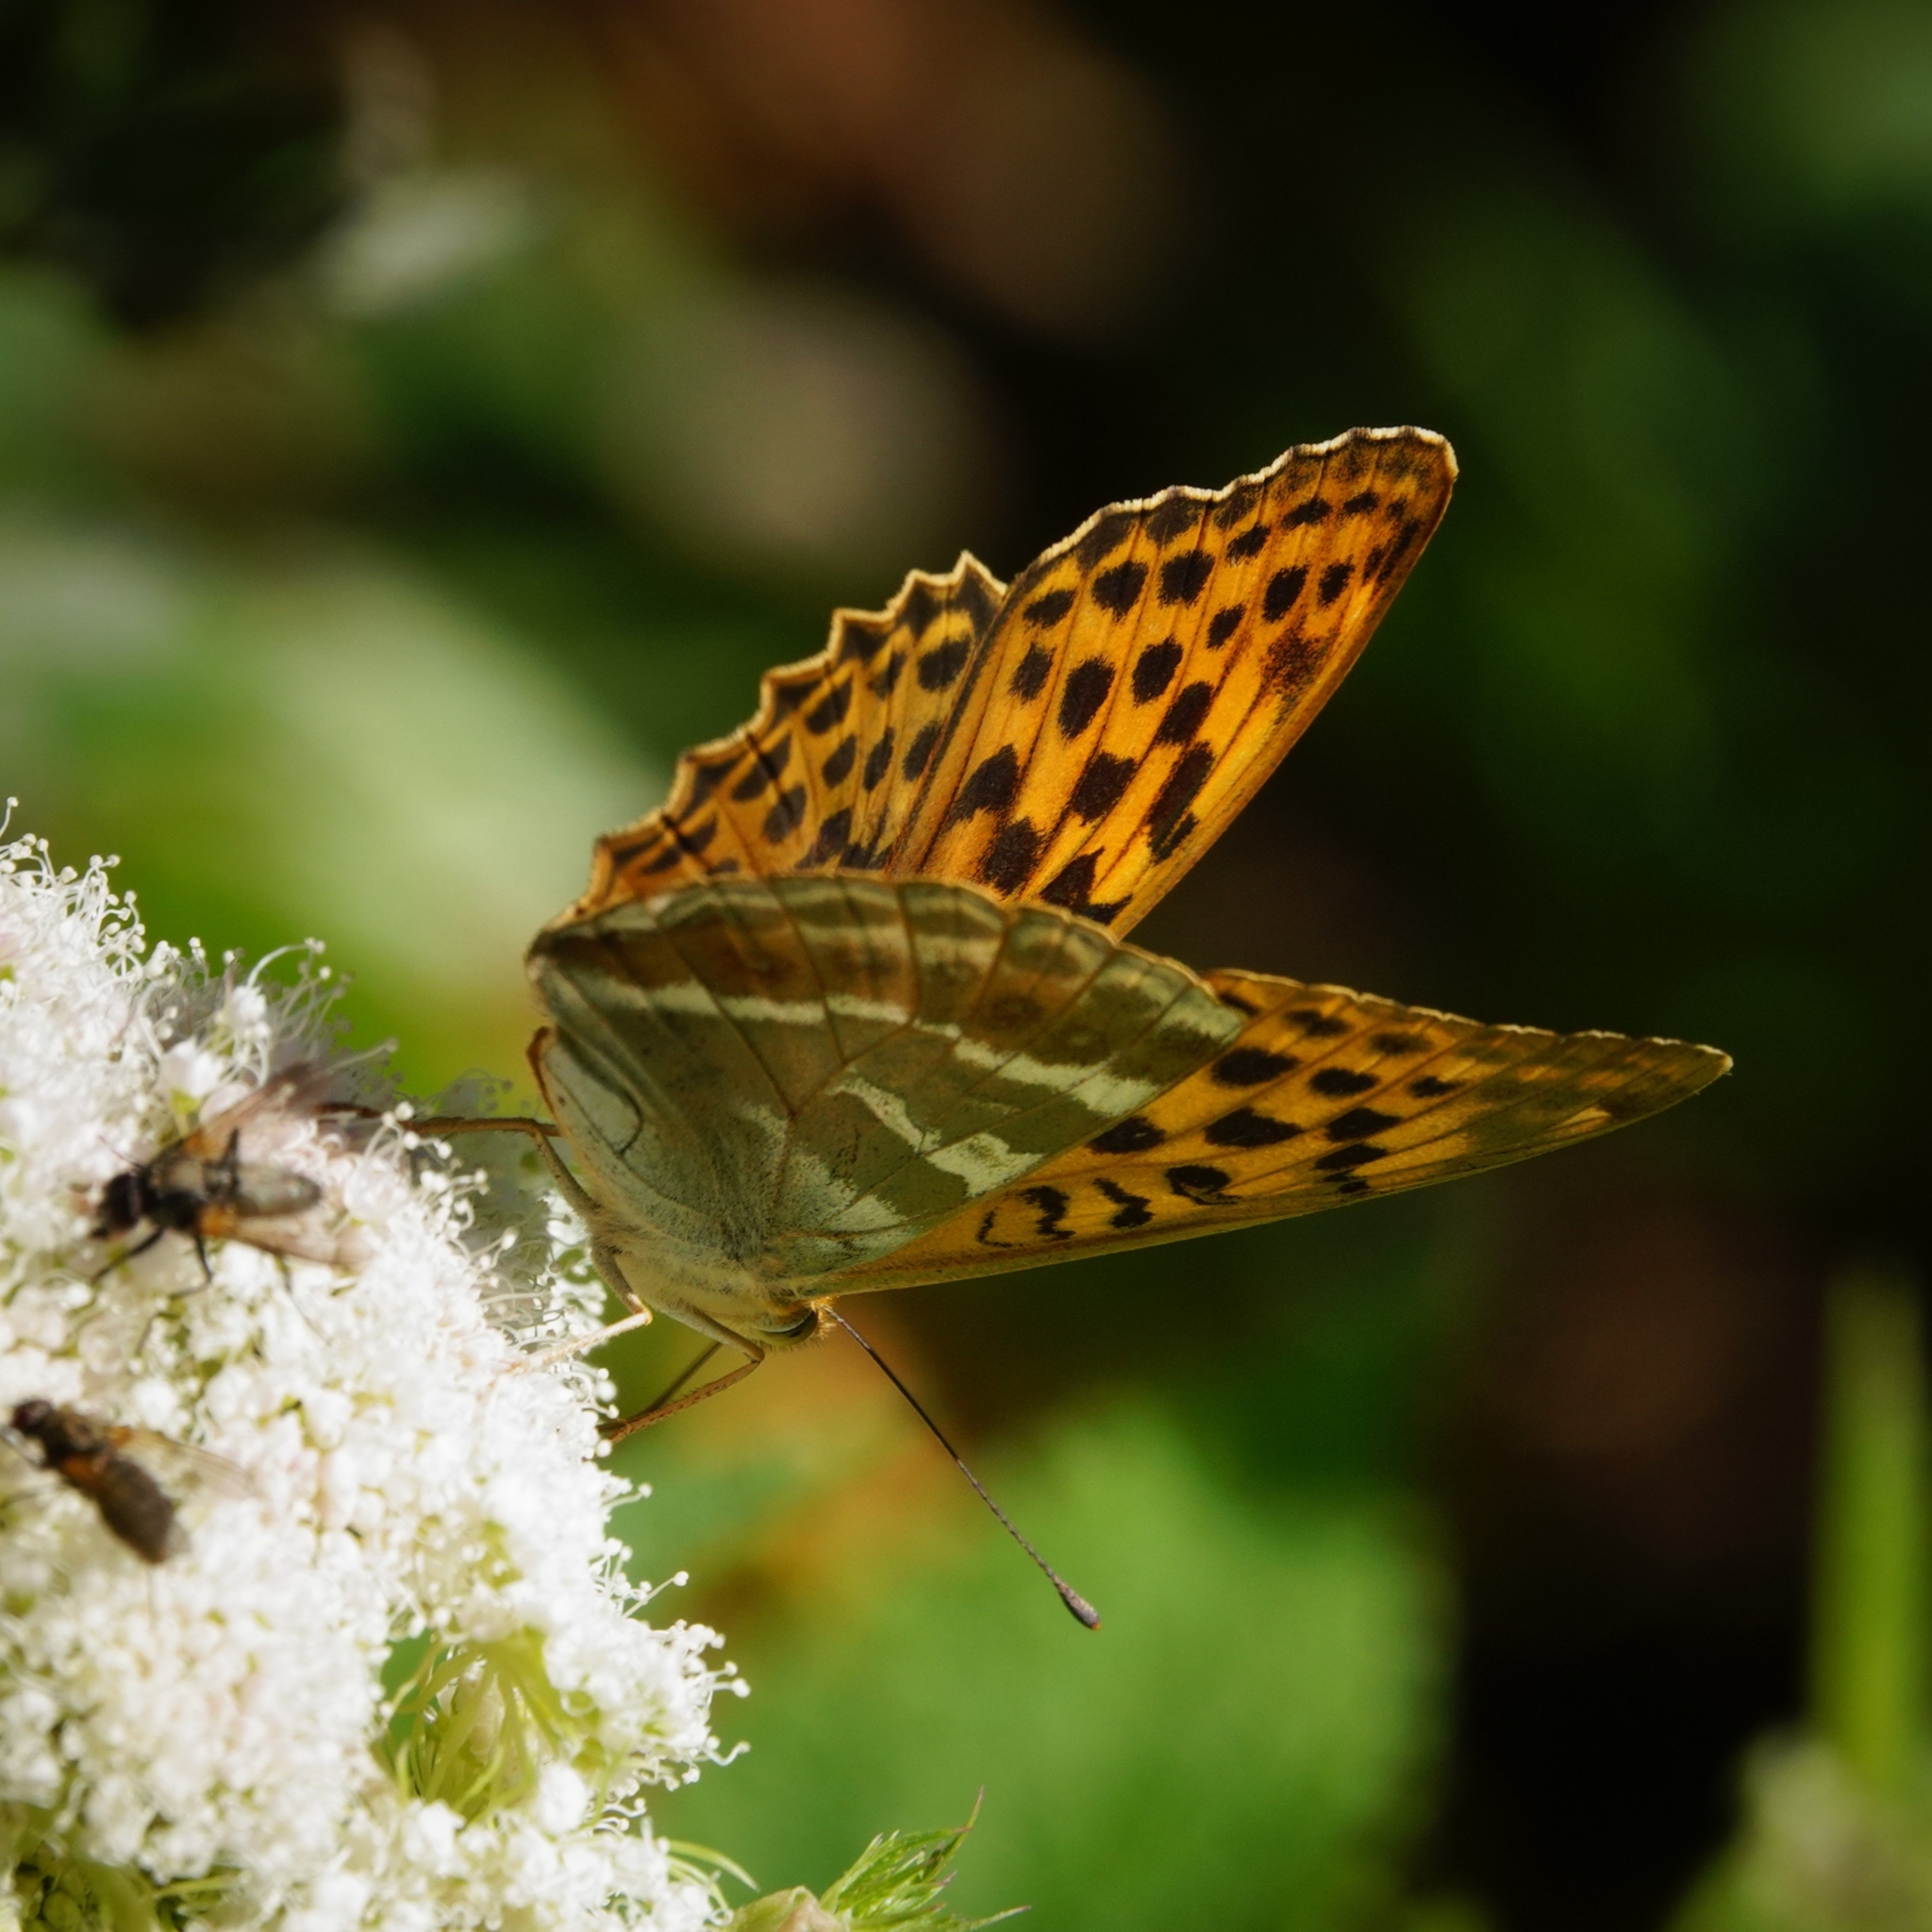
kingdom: Animalia
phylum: Arthropoda
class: Insecta
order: Lepidoptera
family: Nymphalidae
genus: Argynnis
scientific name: Argynnis paphia
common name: Silver-washed fritillary
